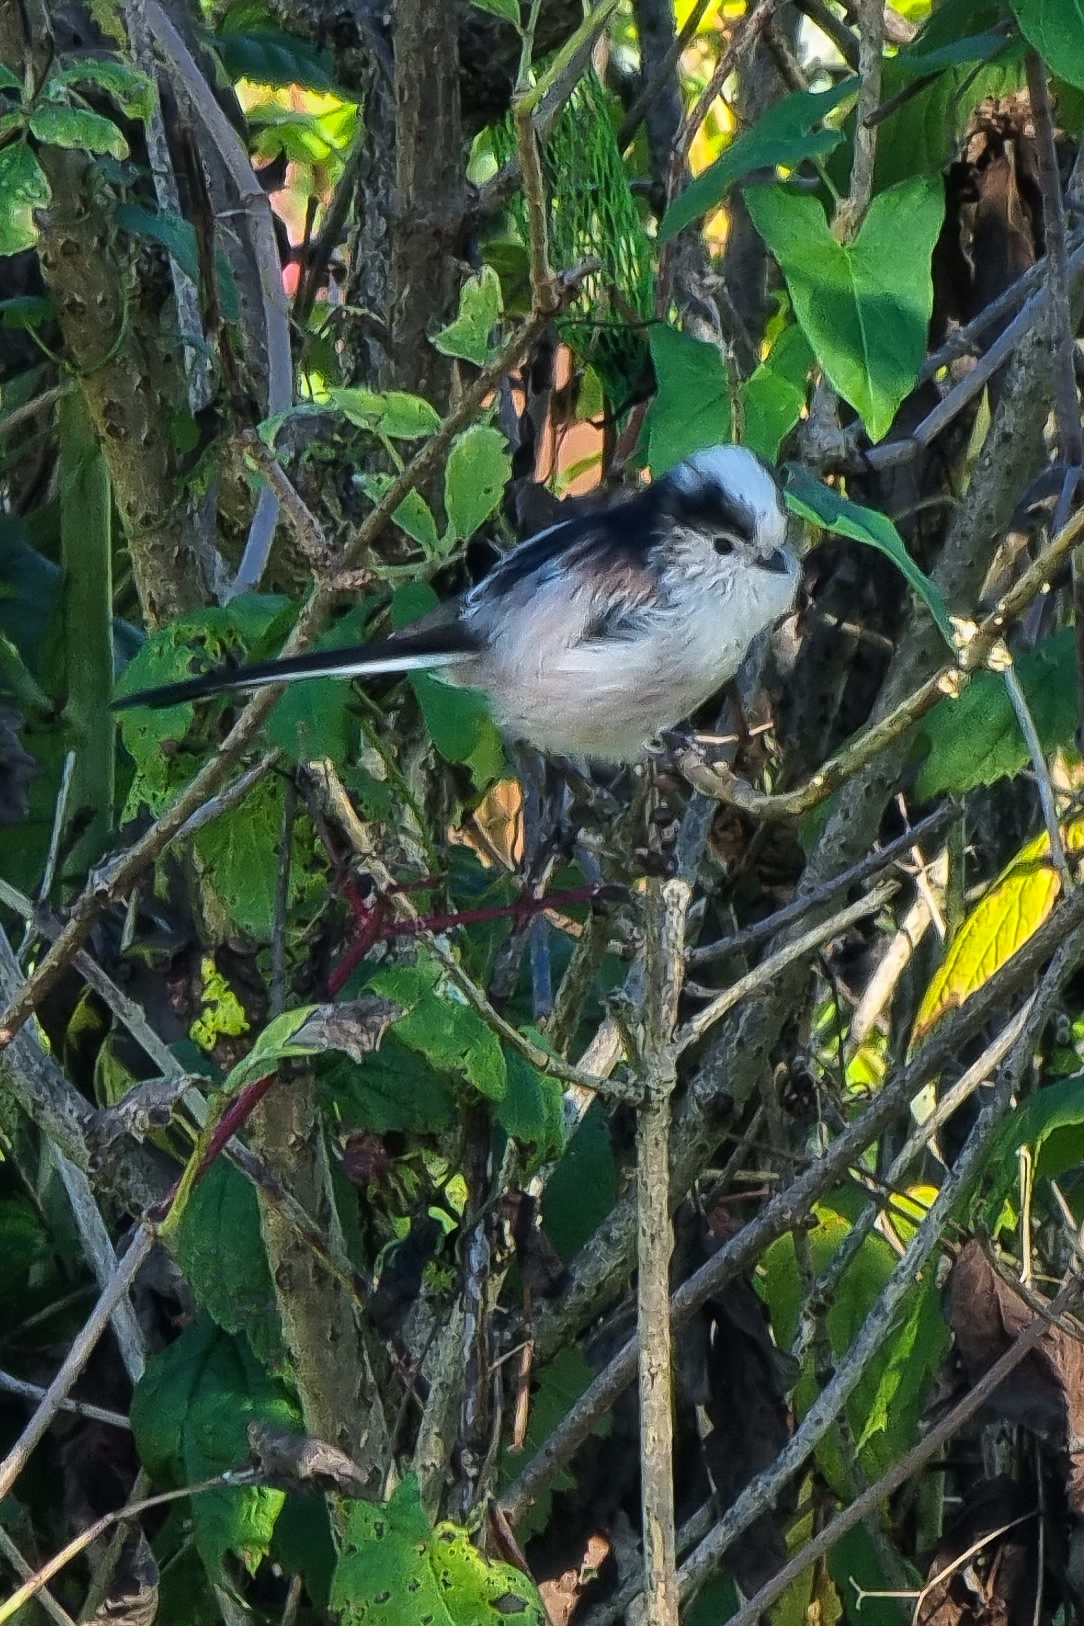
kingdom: Animalia
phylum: Chordata
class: Aves
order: Passeriformes
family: Aegithalidae
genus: Aegithalos
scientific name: Aegithalos caudatus
